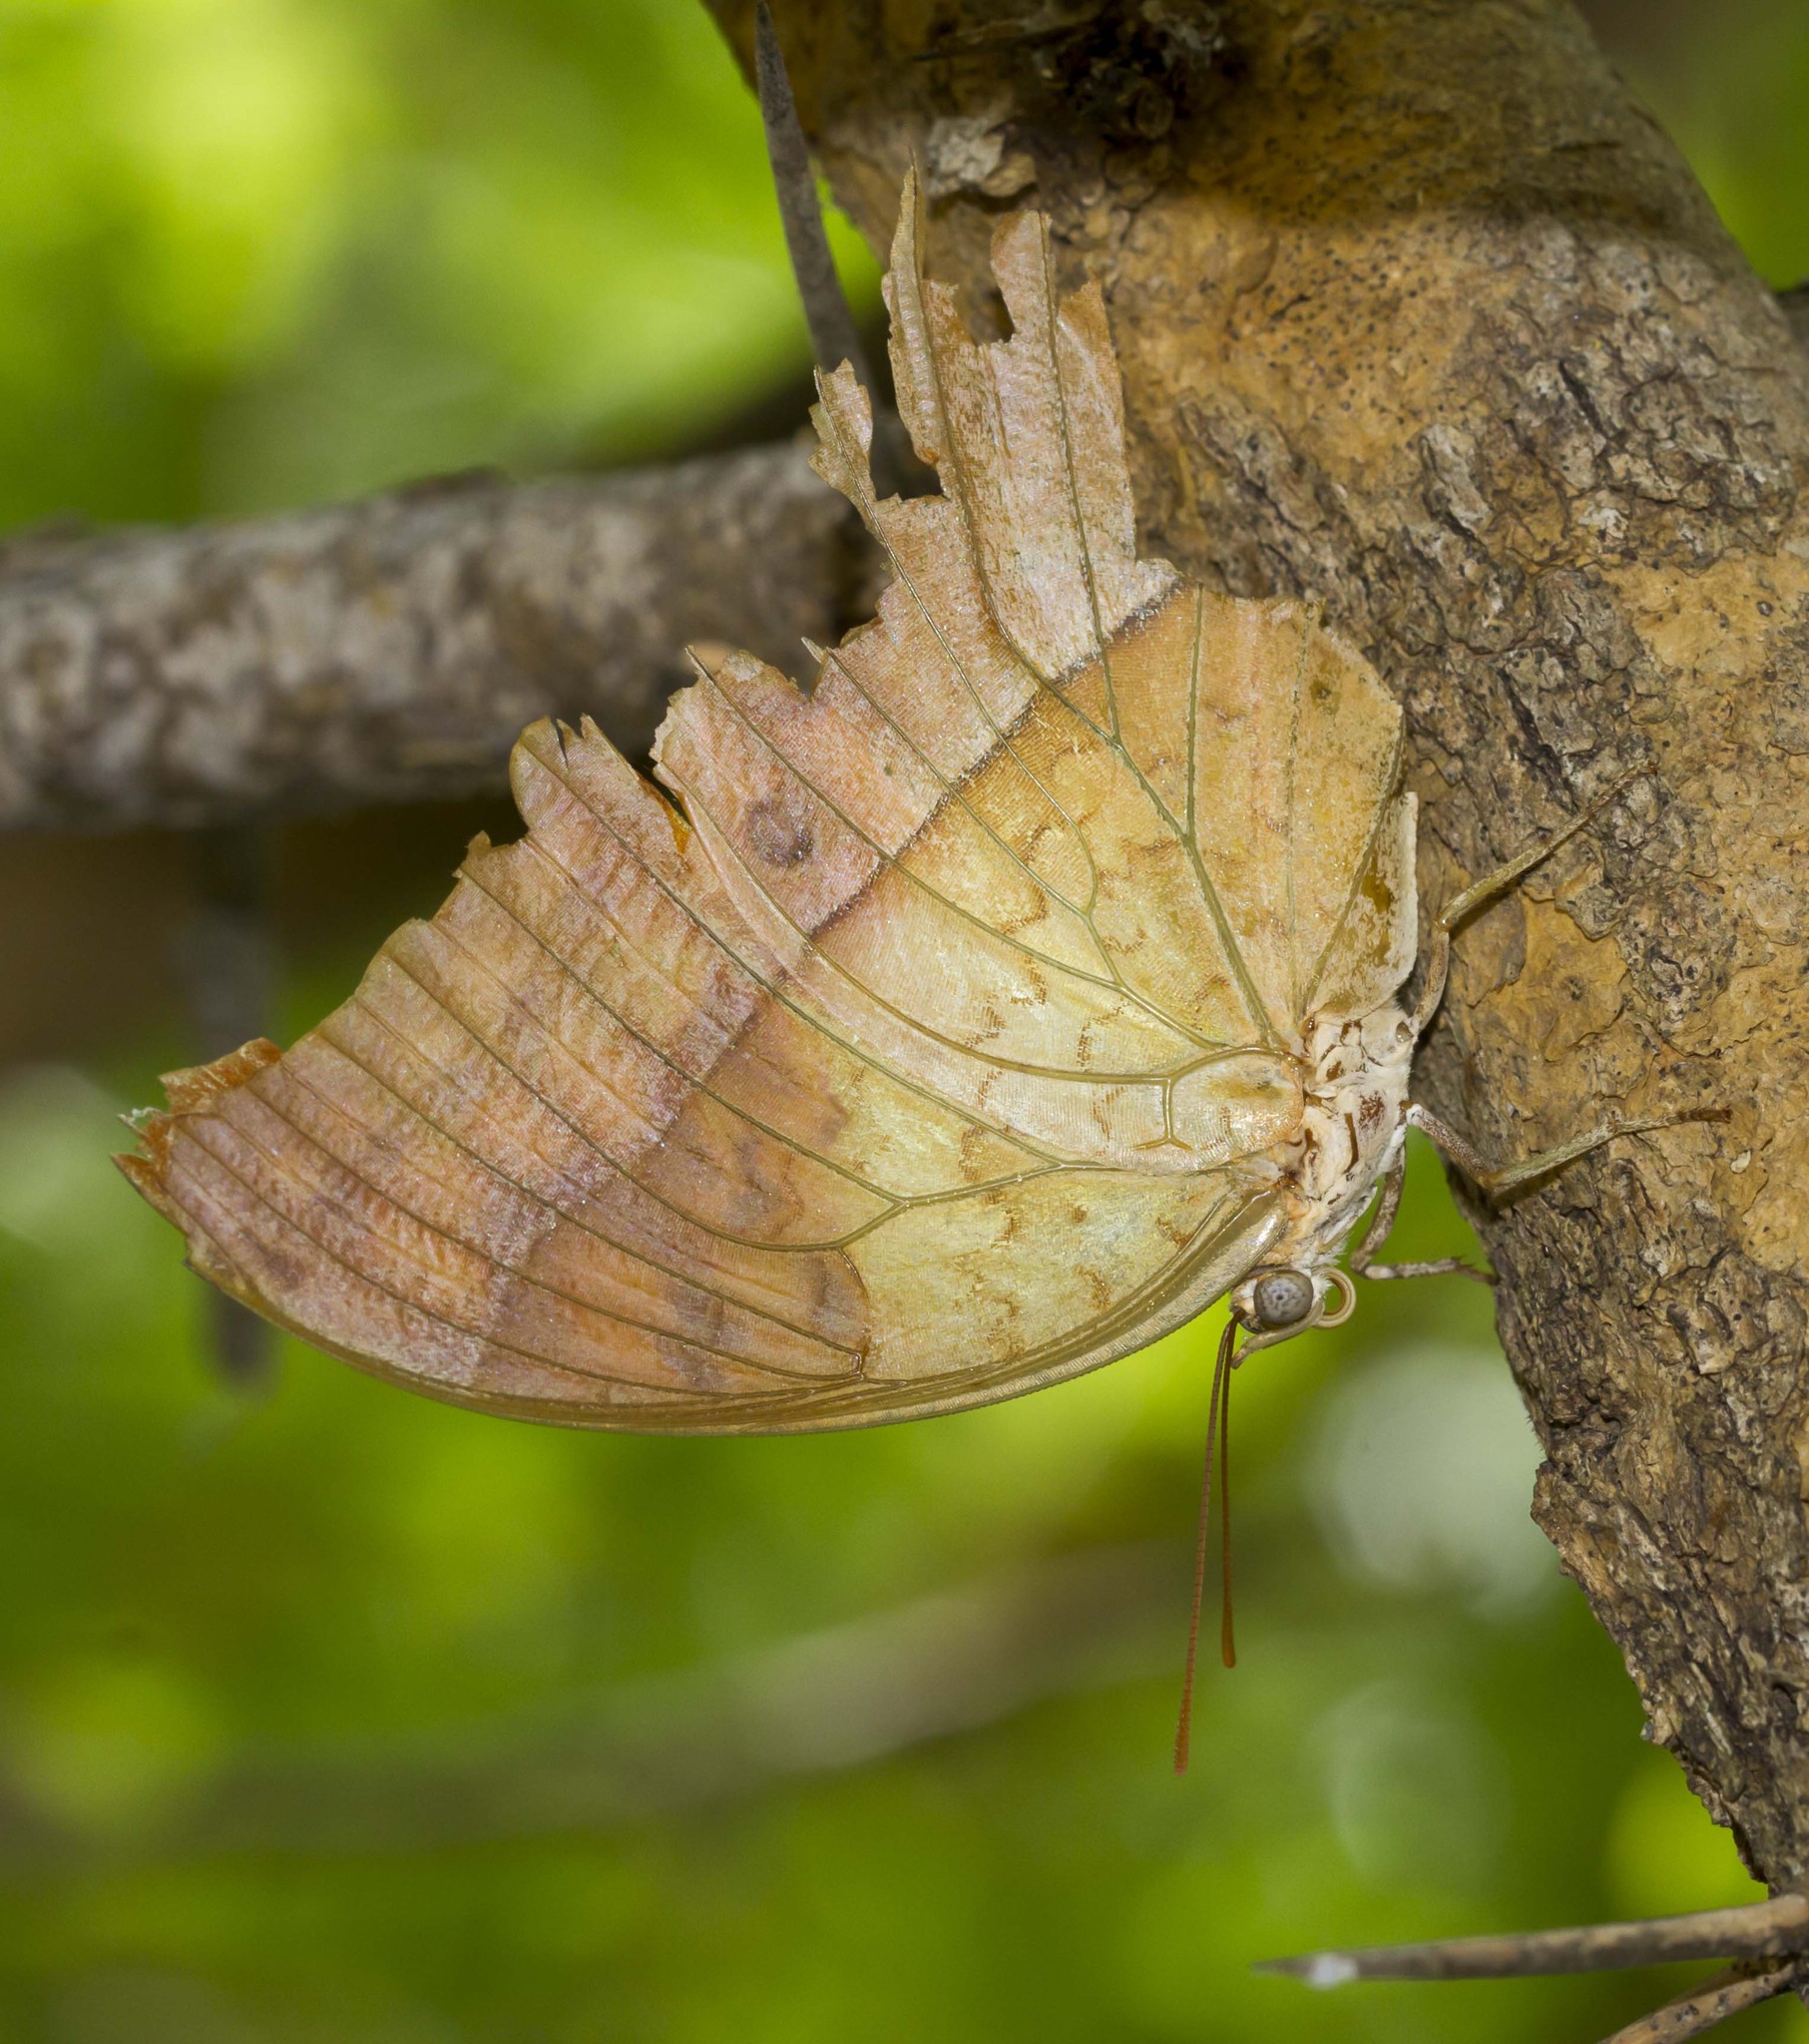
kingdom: Animalia
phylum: Arthropoda
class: Insecta
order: Lepidoptera
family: Nymphalidae
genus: Charaxes
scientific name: Charaxes varanes
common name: Common pearl charaxes
